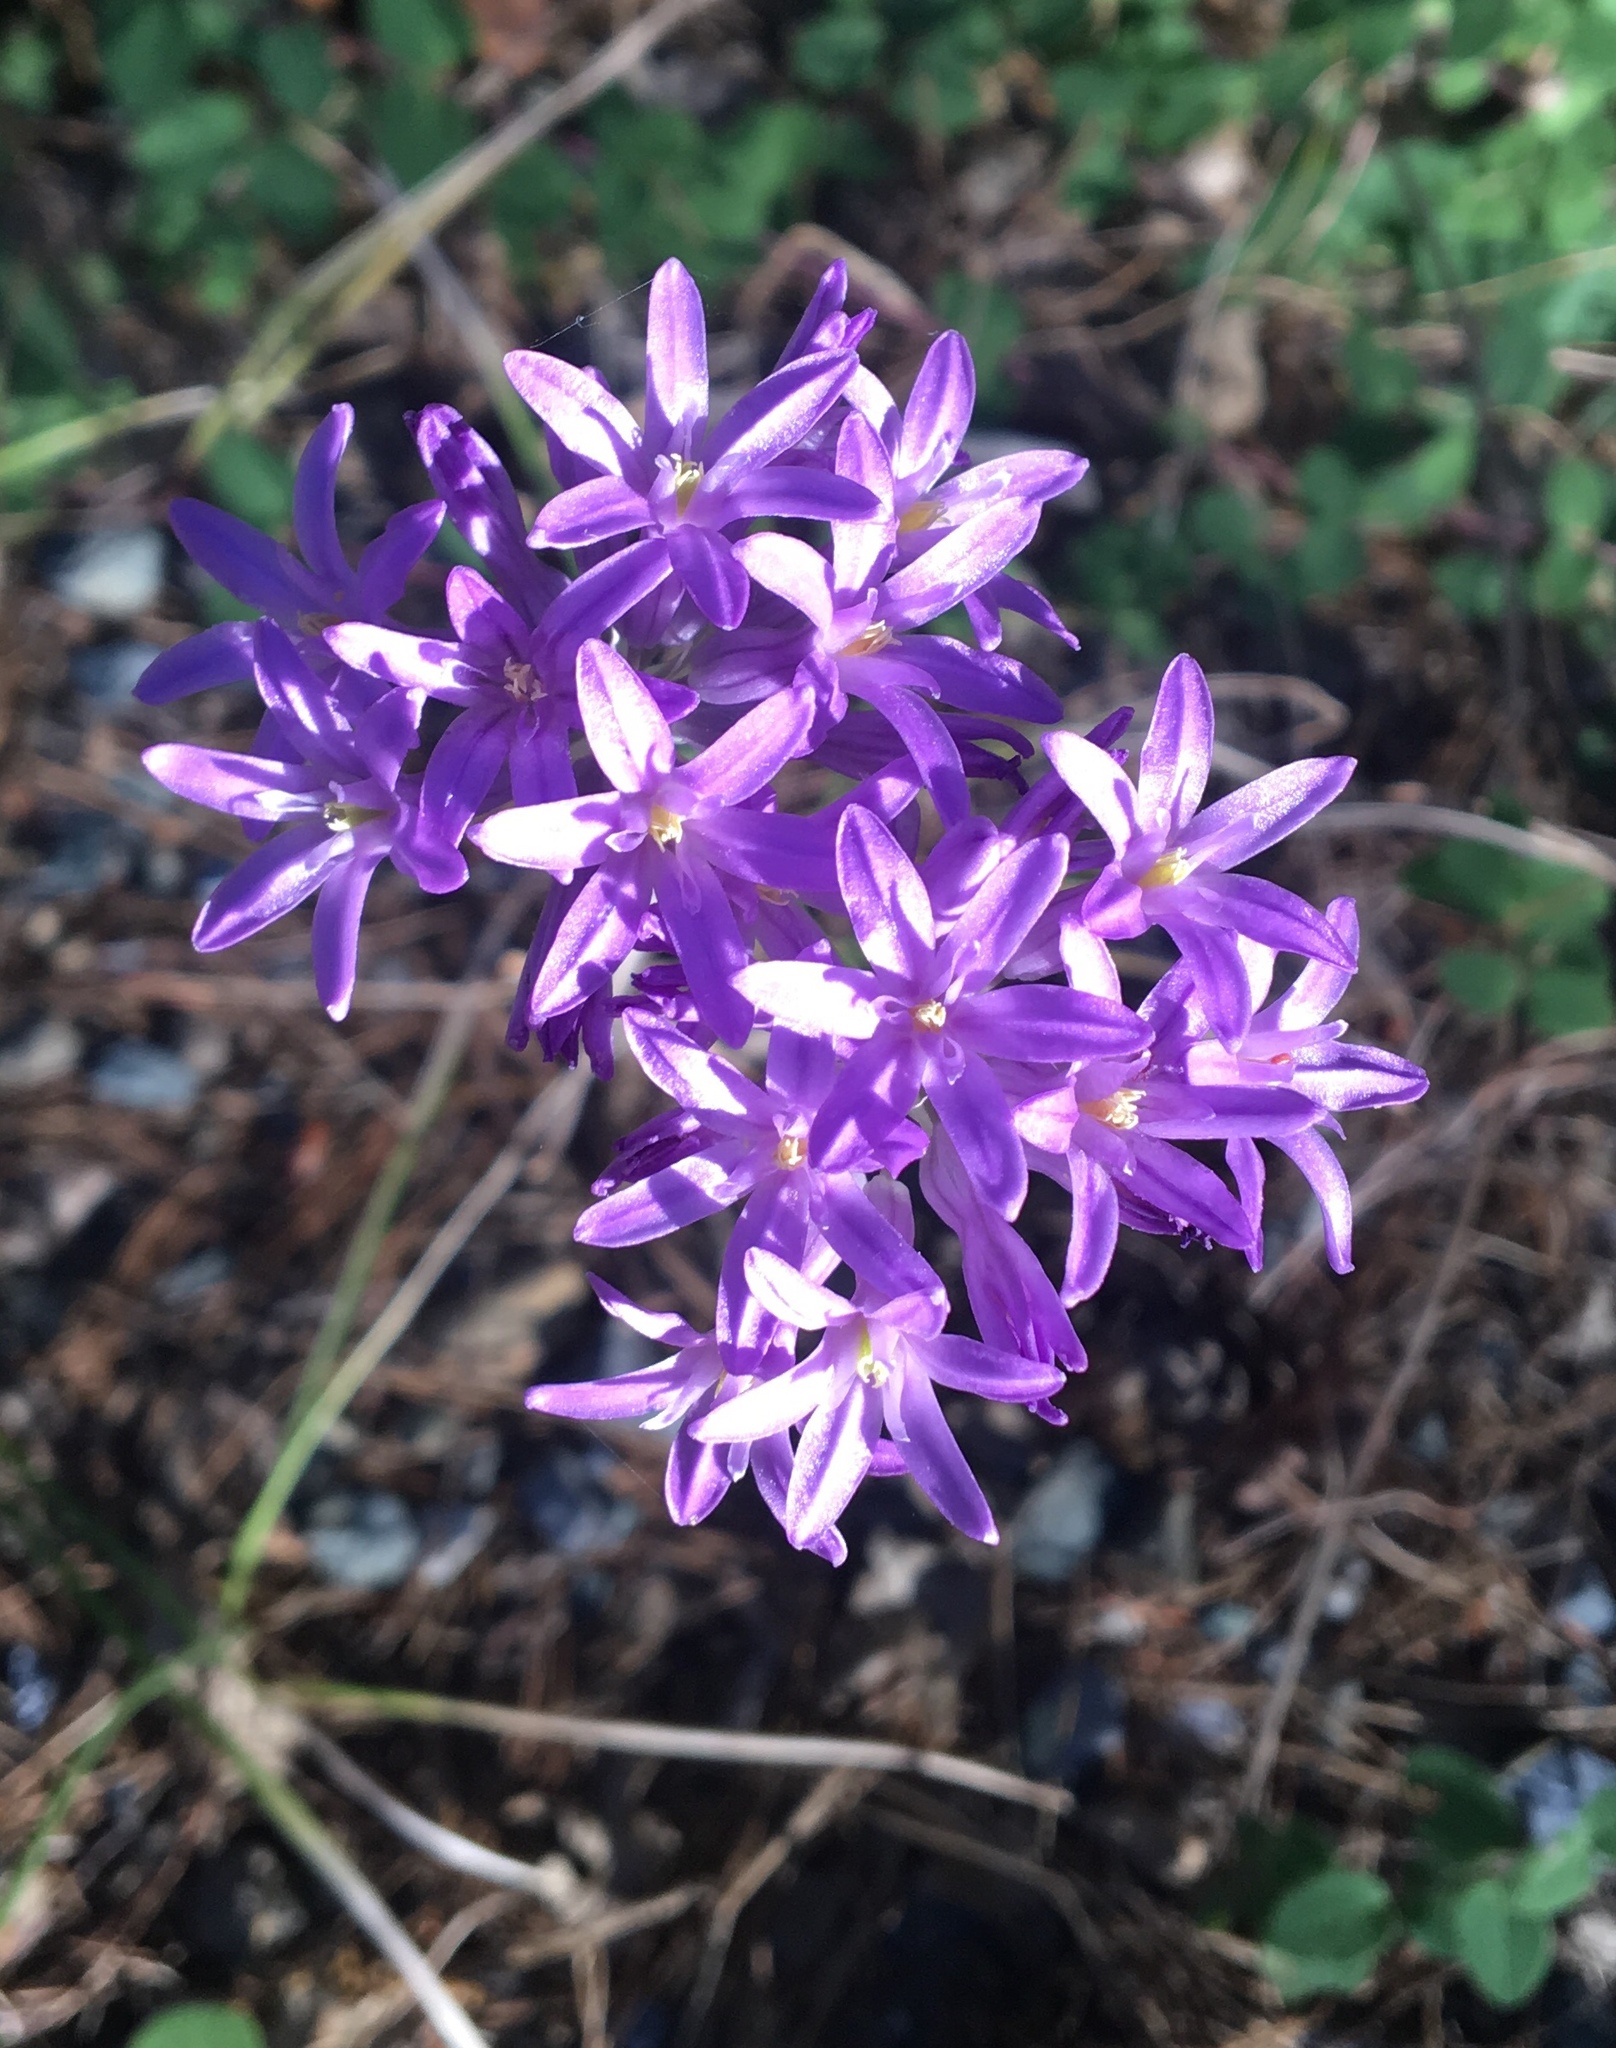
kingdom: Plantae
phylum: Tracheophyta
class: Liliopsida
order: Asparagales
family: Asparagaceae
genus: Dichelostemma
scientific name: Dichelostemma multiflorum
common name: Round-tooth ookow
